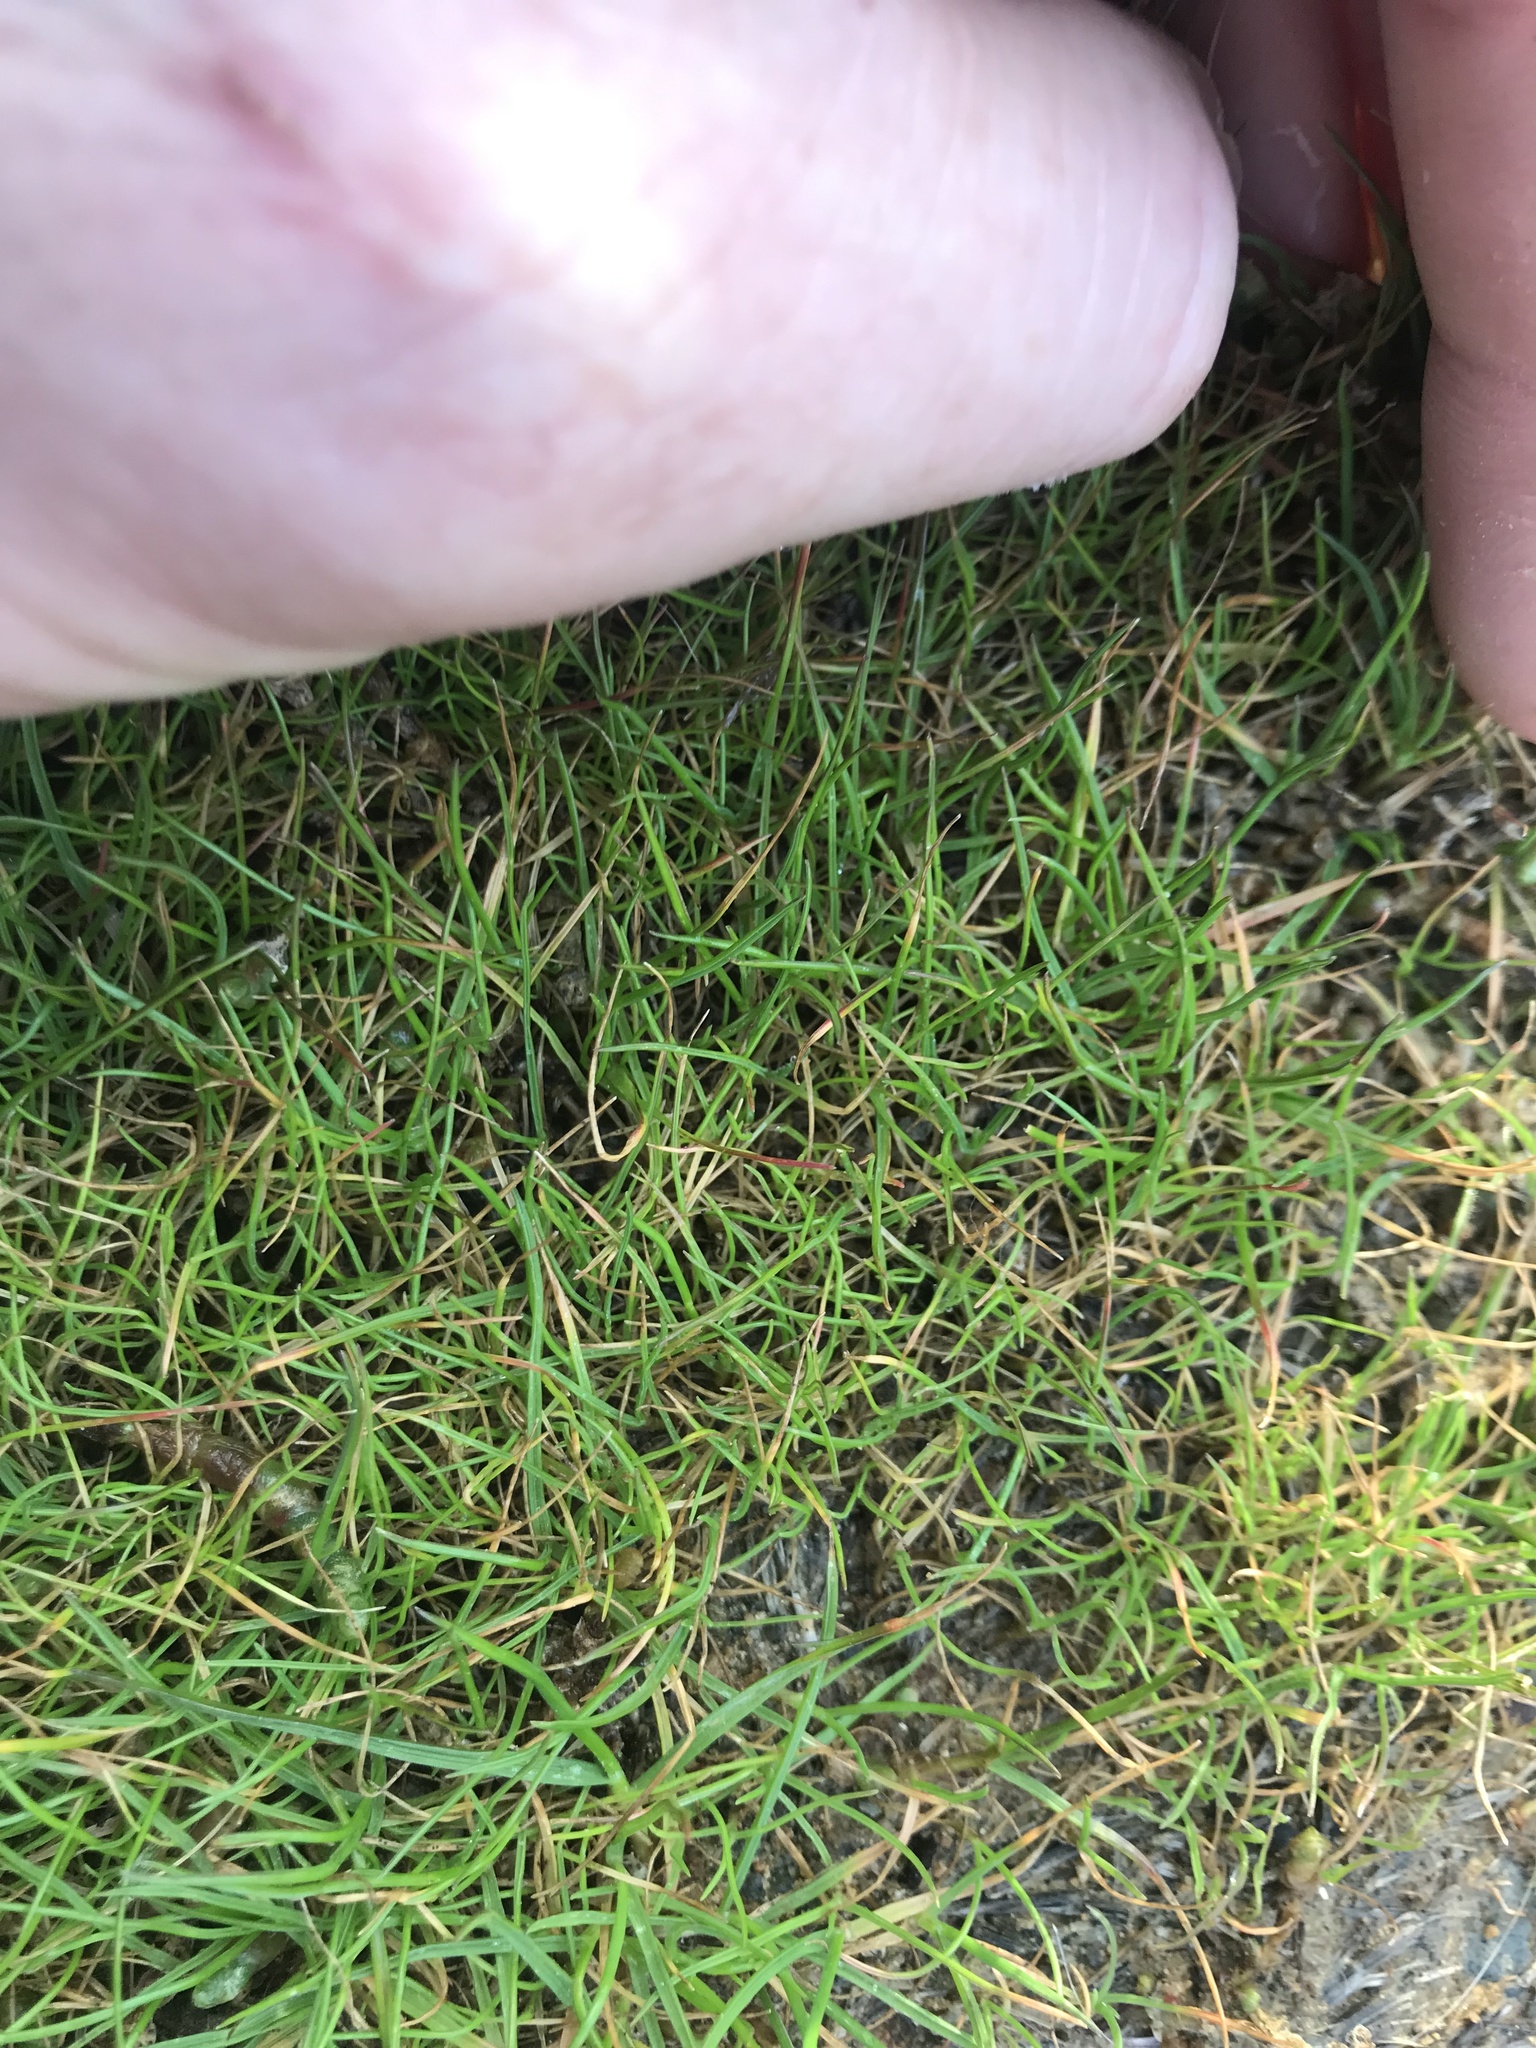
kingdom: Plantae
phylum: Tracheophyta
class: Liliopsida
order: Poales
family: Poaceae
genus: Poa
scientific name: Poa annua
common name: Annual bluegrass
